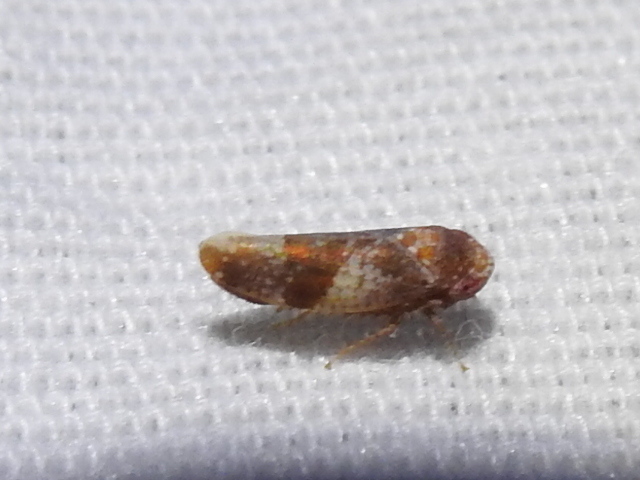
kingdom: Animalia
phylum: Arthropoda
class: Insecta
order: Hemiptera
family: Cicadellidae
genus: Norvellina
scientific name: Norvellina helenae
